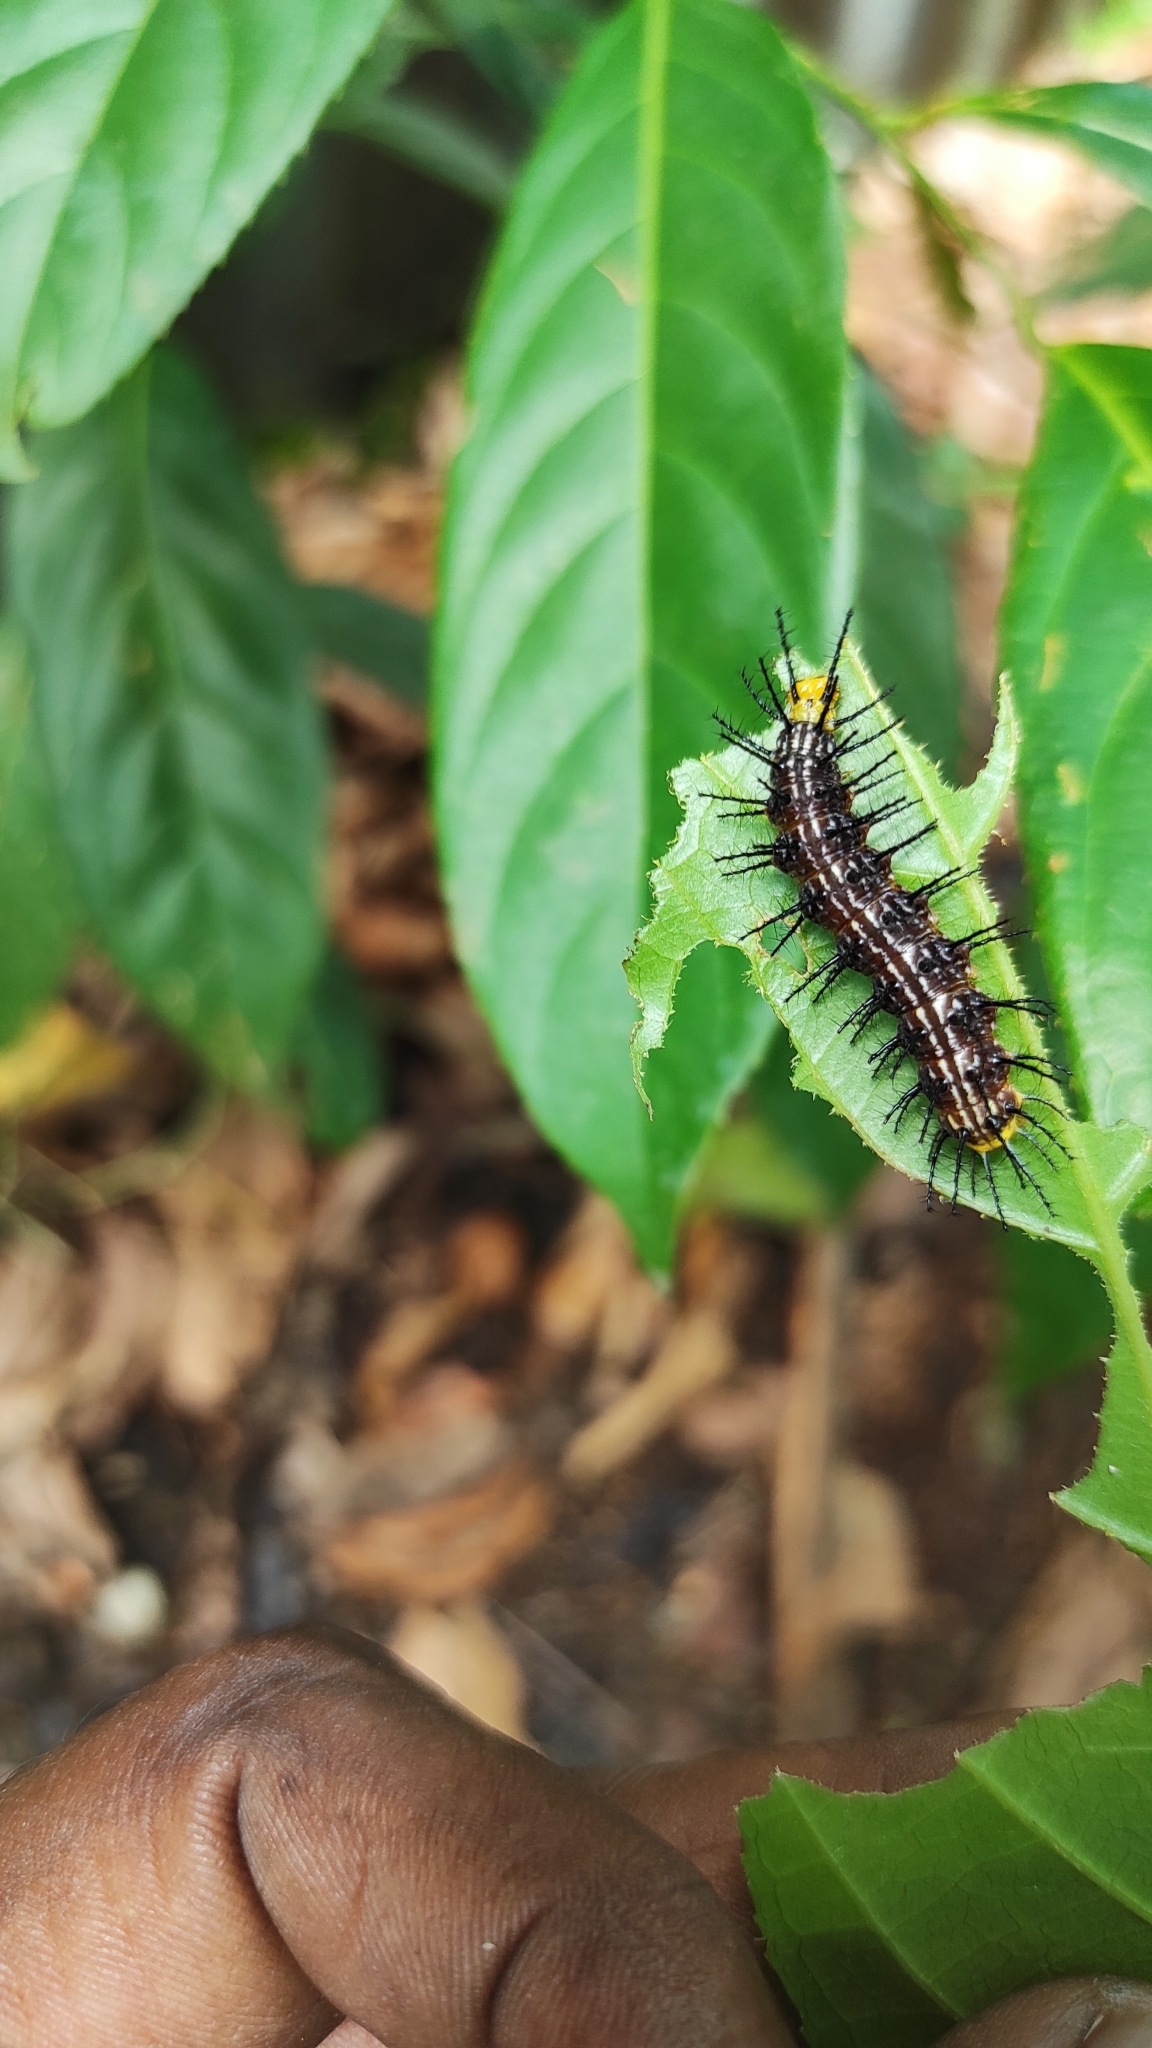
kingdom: Animalia
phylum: Arthropoda
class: Insecta
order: Lepidoptera
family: Nymphalidae
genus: Cirrochroa
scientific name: Cirrochroa thais
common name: Tamil yeoman
